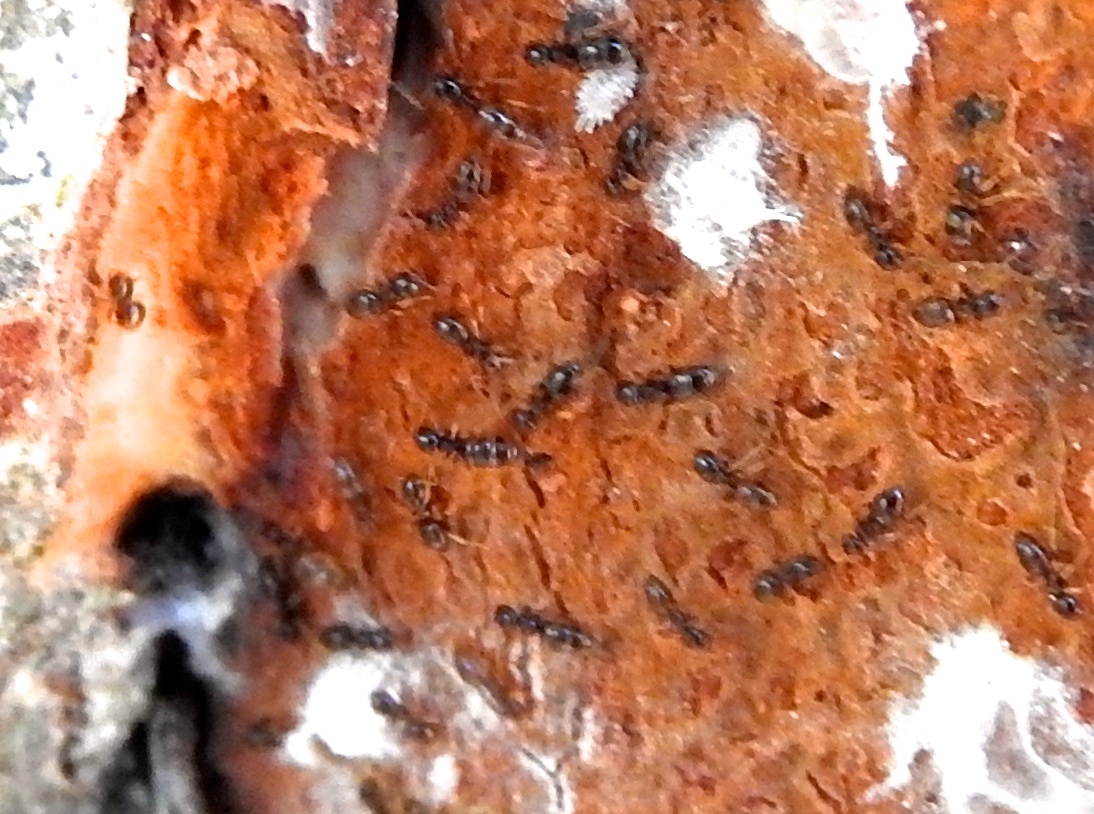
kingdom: Animalia
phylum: Arthropoda
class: Insecta
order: Hymenoptera
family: Formicidae
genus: Brachymyrmex
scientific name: Brachymyrmex
